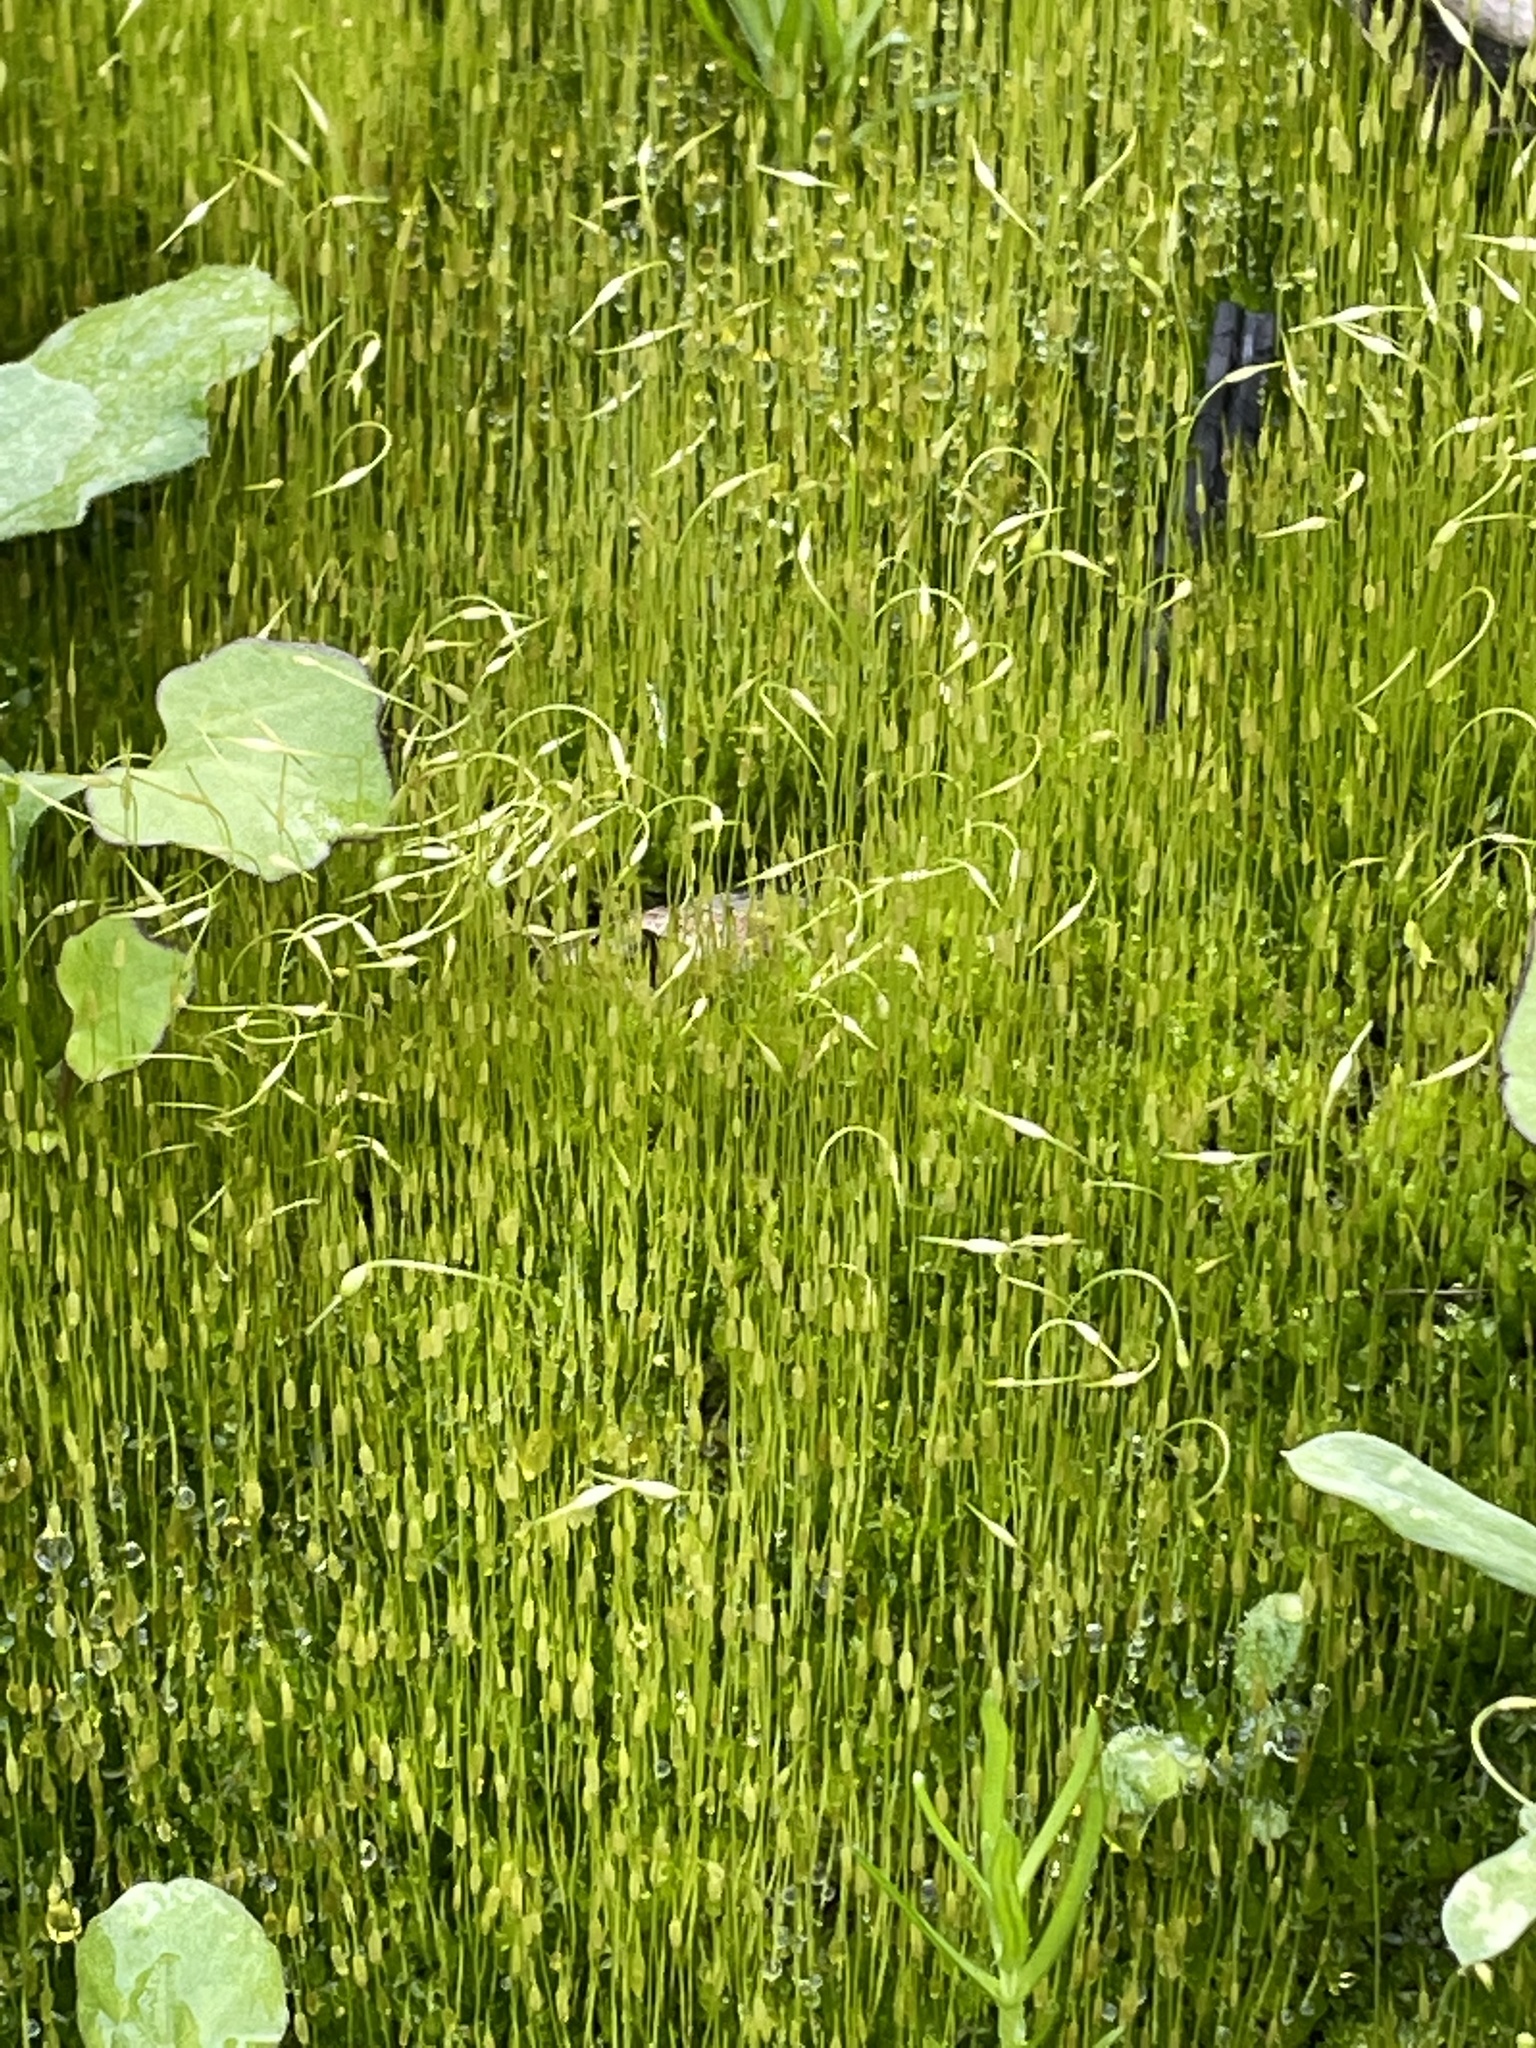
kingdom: Plantae
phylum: Bryophyta
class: Bryopsida
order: Funariales
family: Funariaceae
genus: Funaria
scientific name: Funaria hygrometrica
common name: Common cord moss
